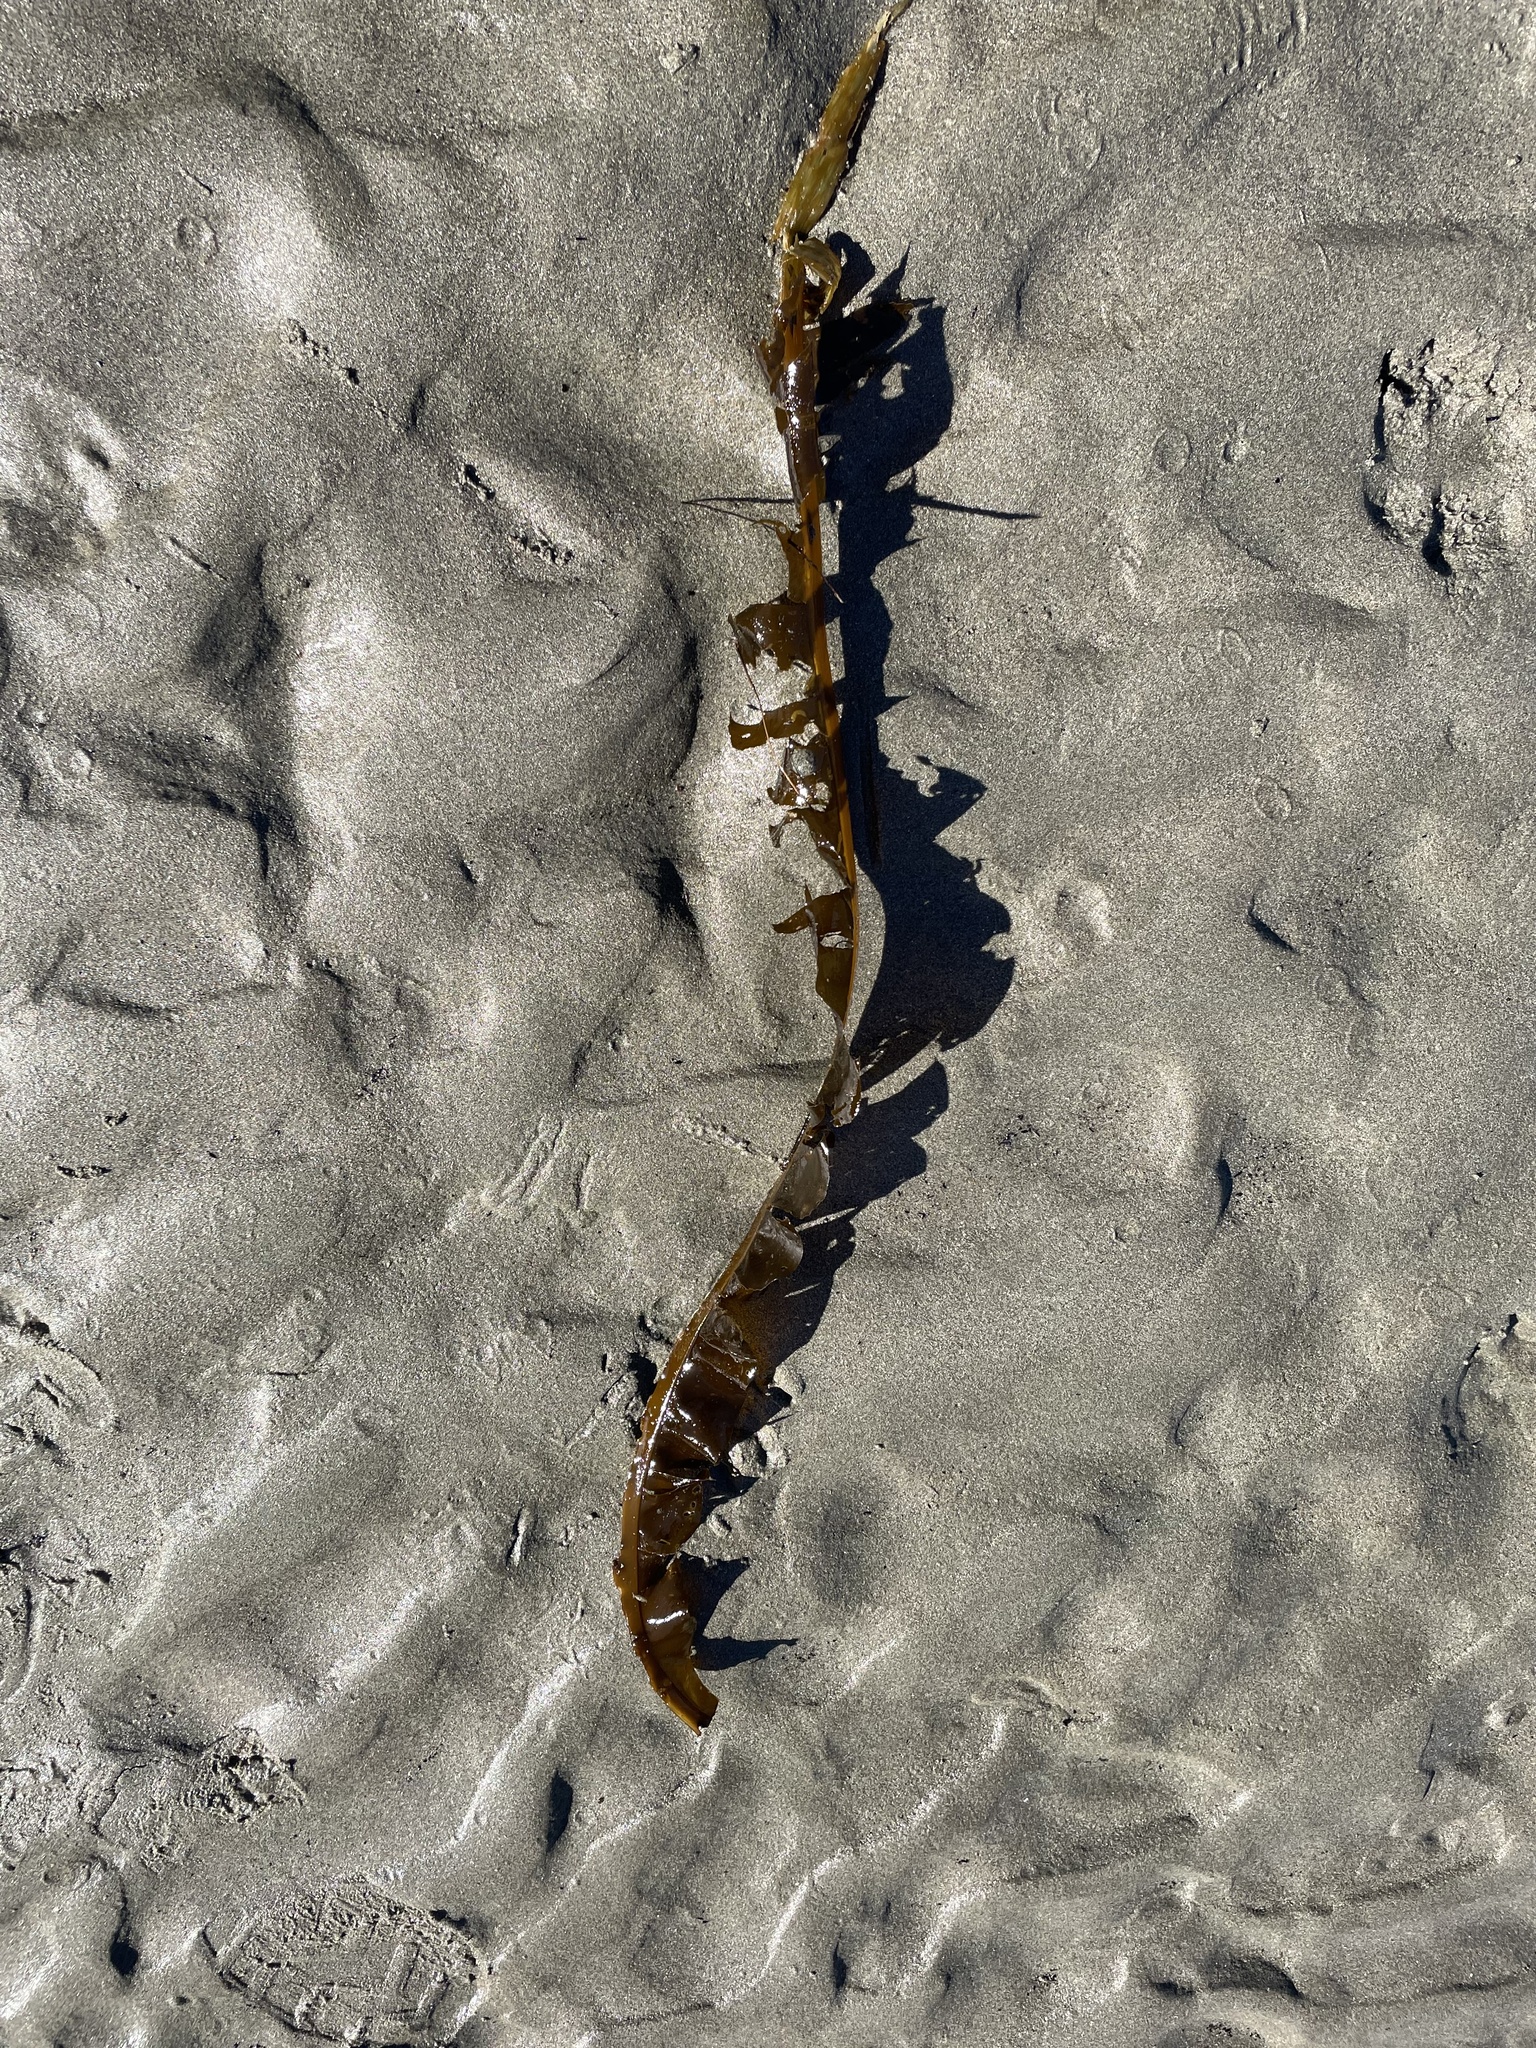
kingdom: Chromista
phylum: Ochrophyta
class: Phaeophyceae
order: Laminariales
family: Alariaceae
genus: Alaria
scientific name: Alaria marginata
